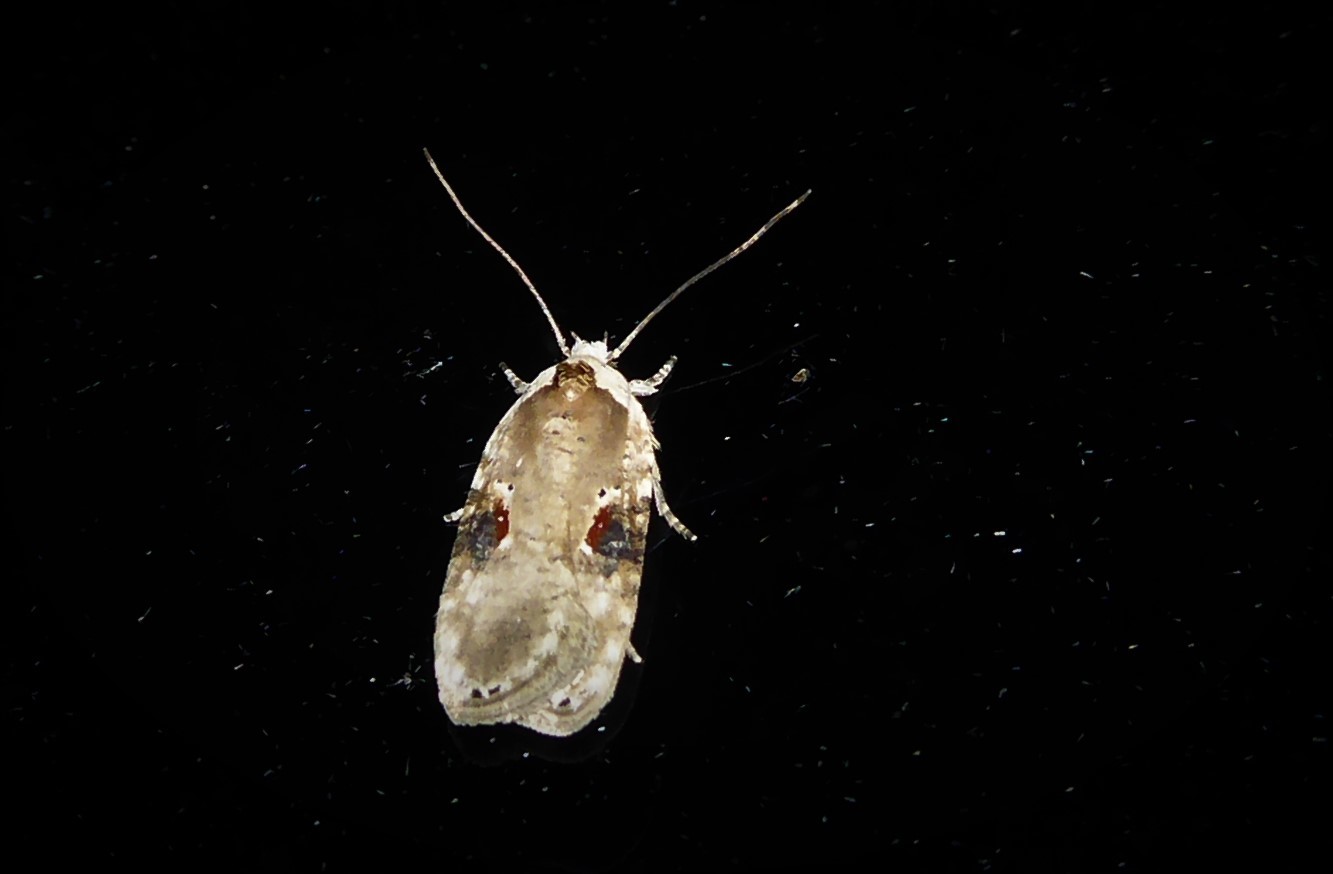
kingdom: Animalia
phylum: Arthropoda
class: Insecta
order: Lepidoptera
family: Depressariidae
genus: Agonopterix
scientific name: Agonopterix alstroemeriana
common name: Moth
